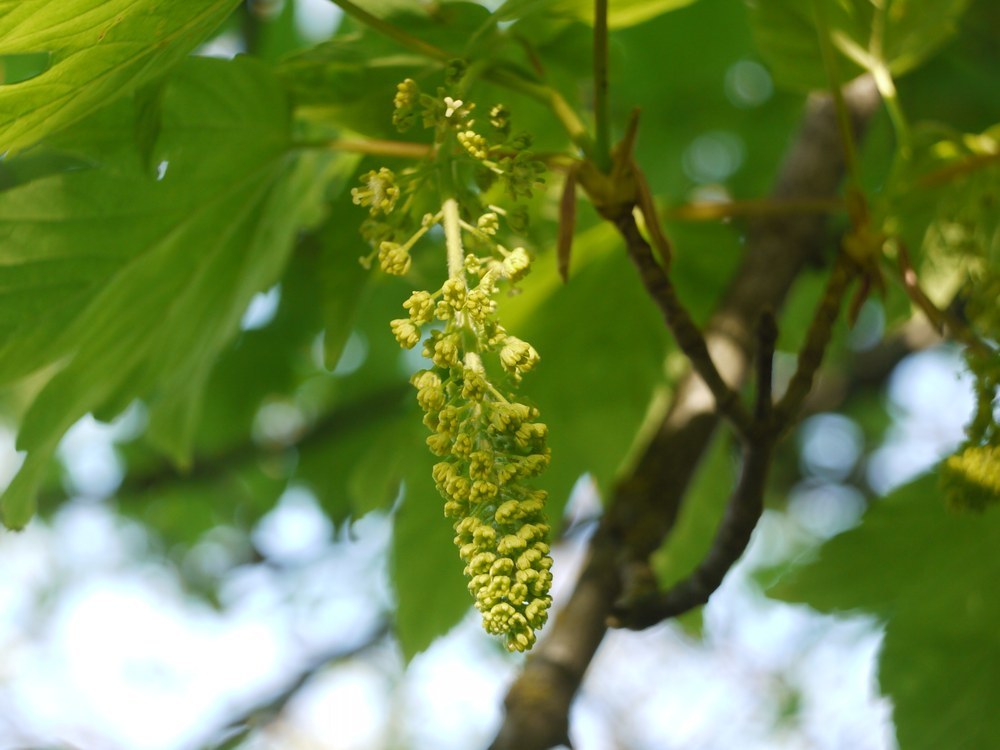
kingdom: Plantae
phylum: Tracheophyta
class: Magnoliopsida
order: Sapindales
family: Sapindaceae
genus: Acer
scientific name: Acer pseudoplatanus
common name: Sycamore
